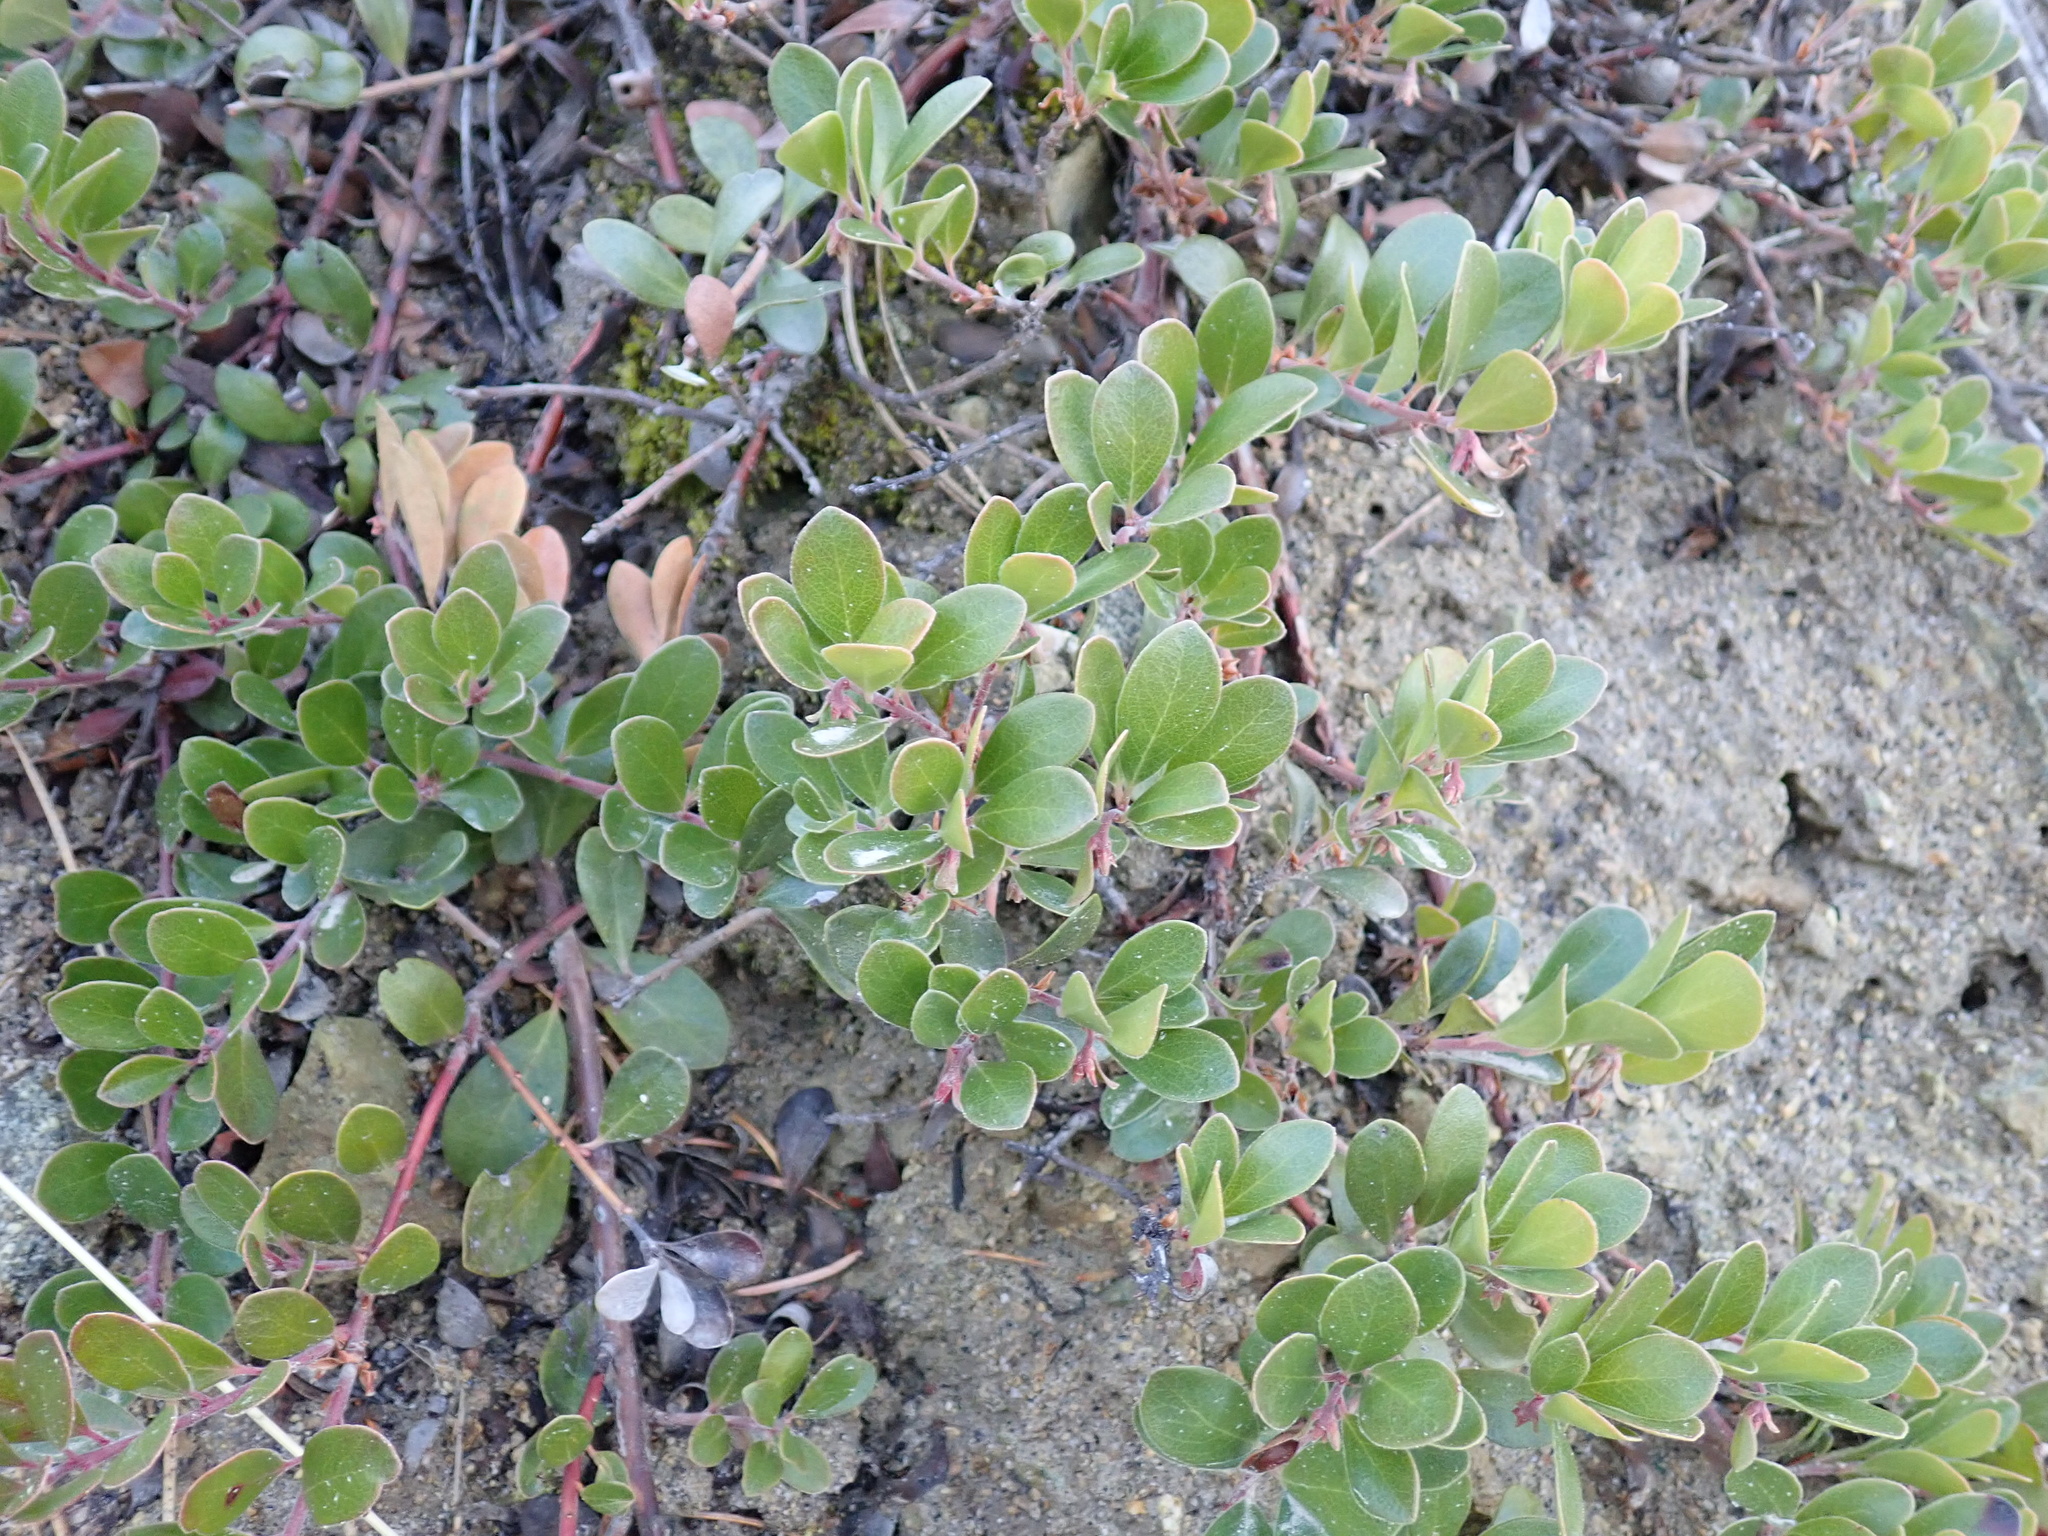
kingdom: Plantae
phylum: Tracheophyta
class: Magnoliopsida
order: Ericales
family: Ericaceae
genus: Arctostaphylos
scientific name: Arctostaphylos uva-ursi
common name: Bearberry
